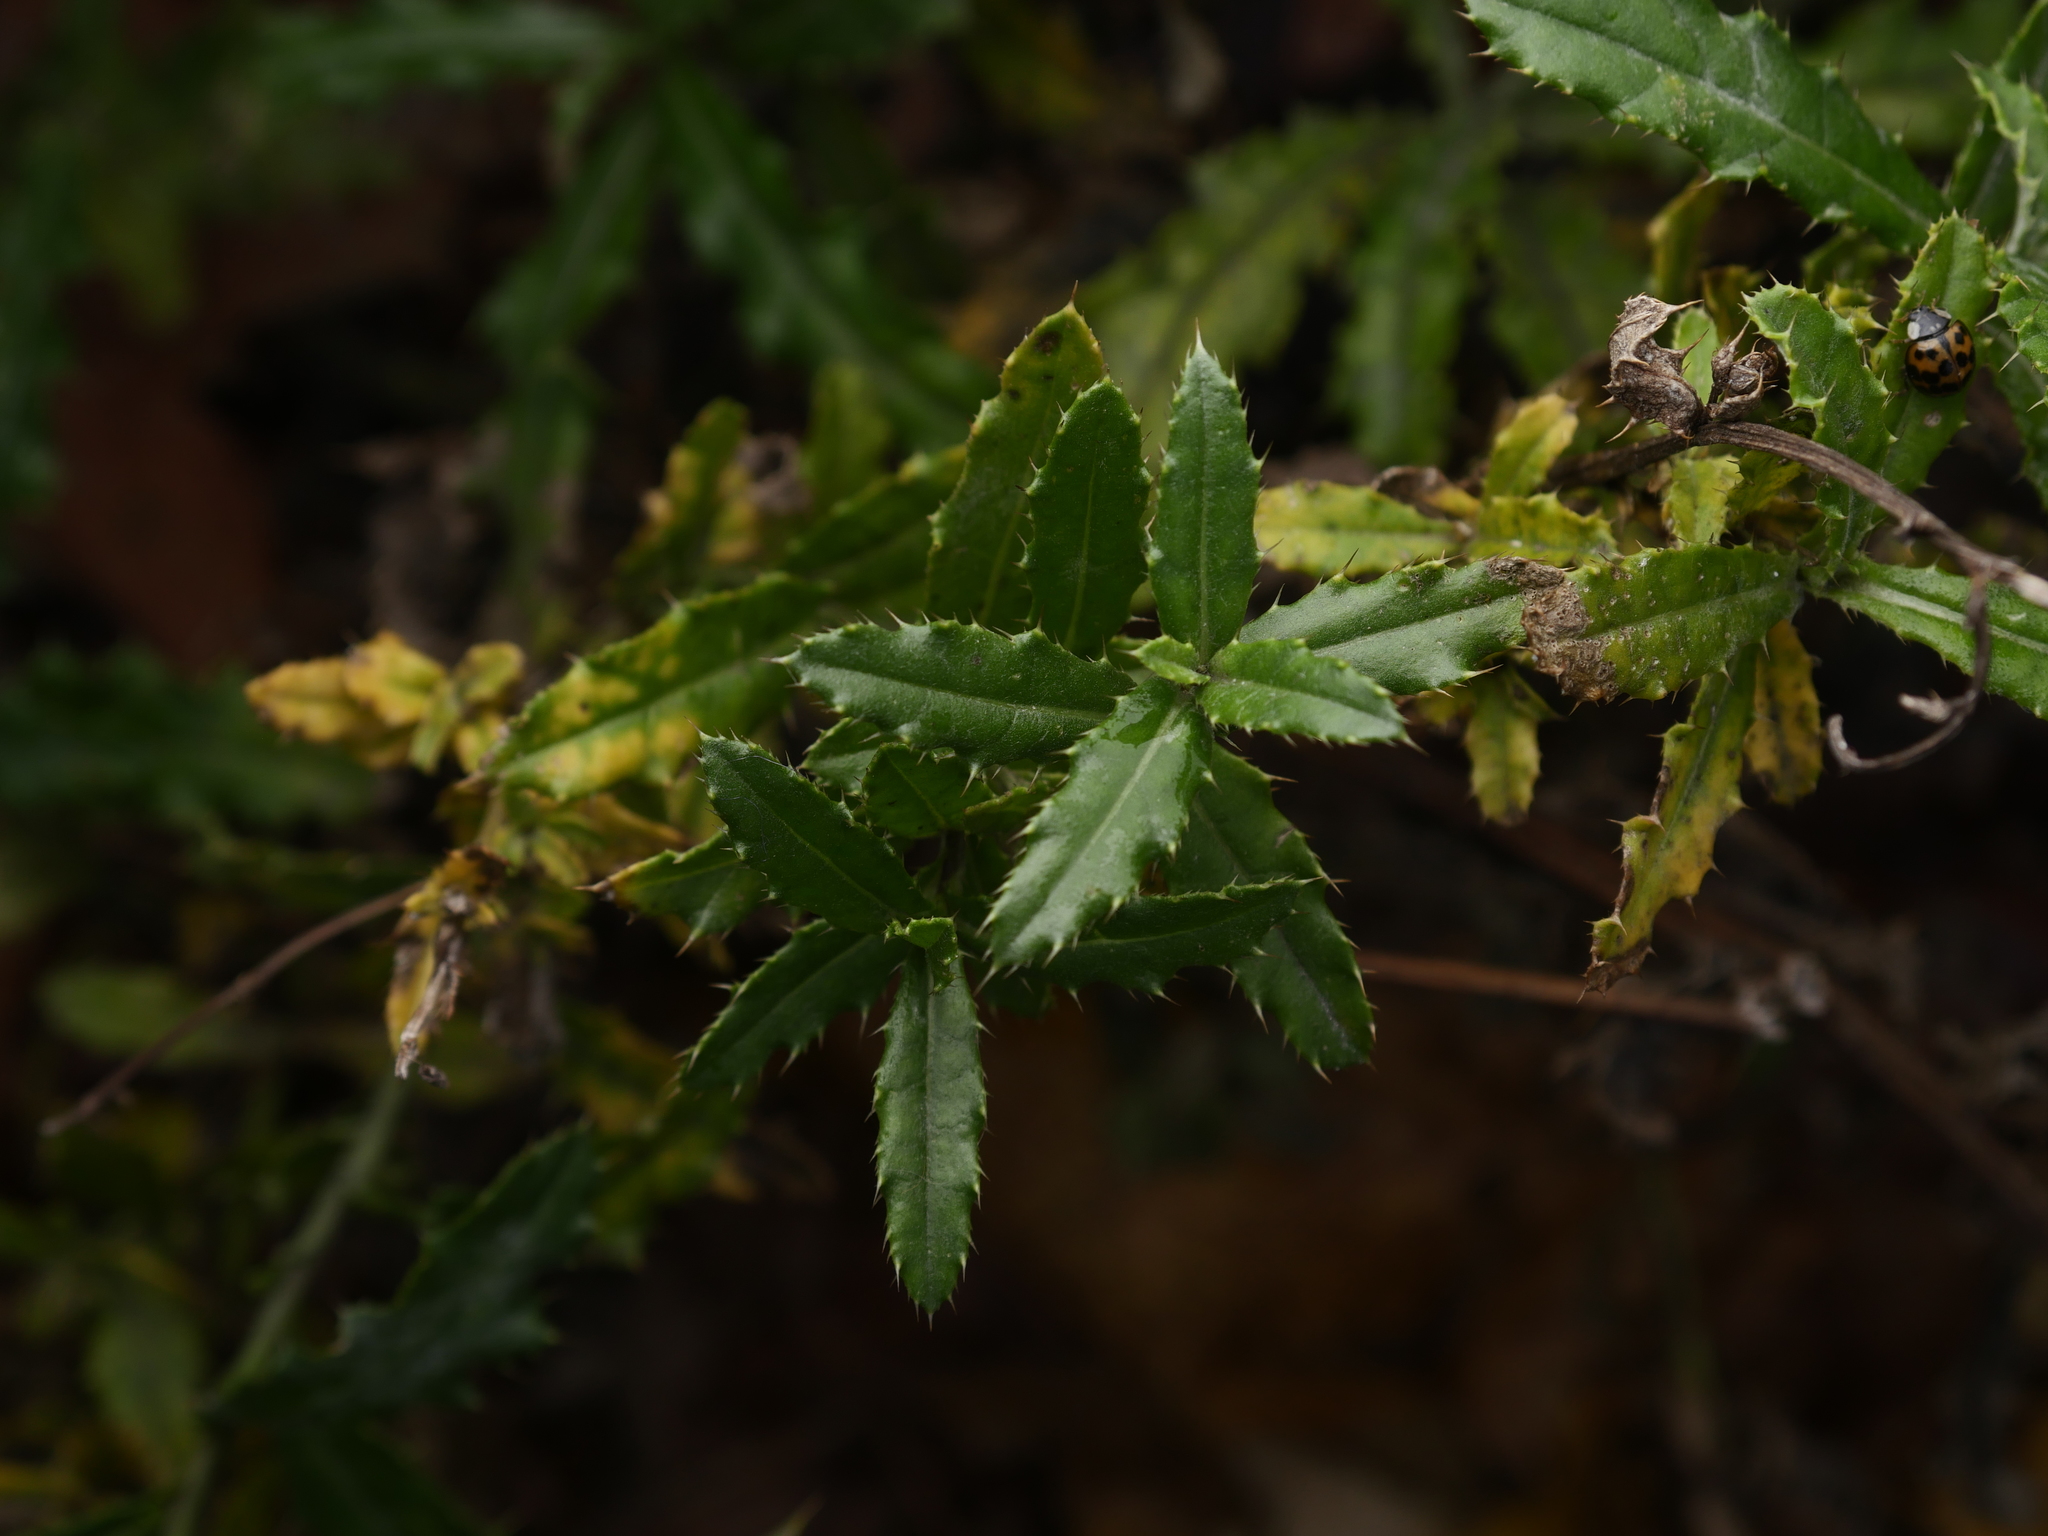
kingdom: Plantae
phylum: Tracheophyta
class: Magnoliopsida
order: Asterales
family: Asteraceae
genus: Cirsium
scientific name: Cirsium arvense
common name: Creeping thistle
